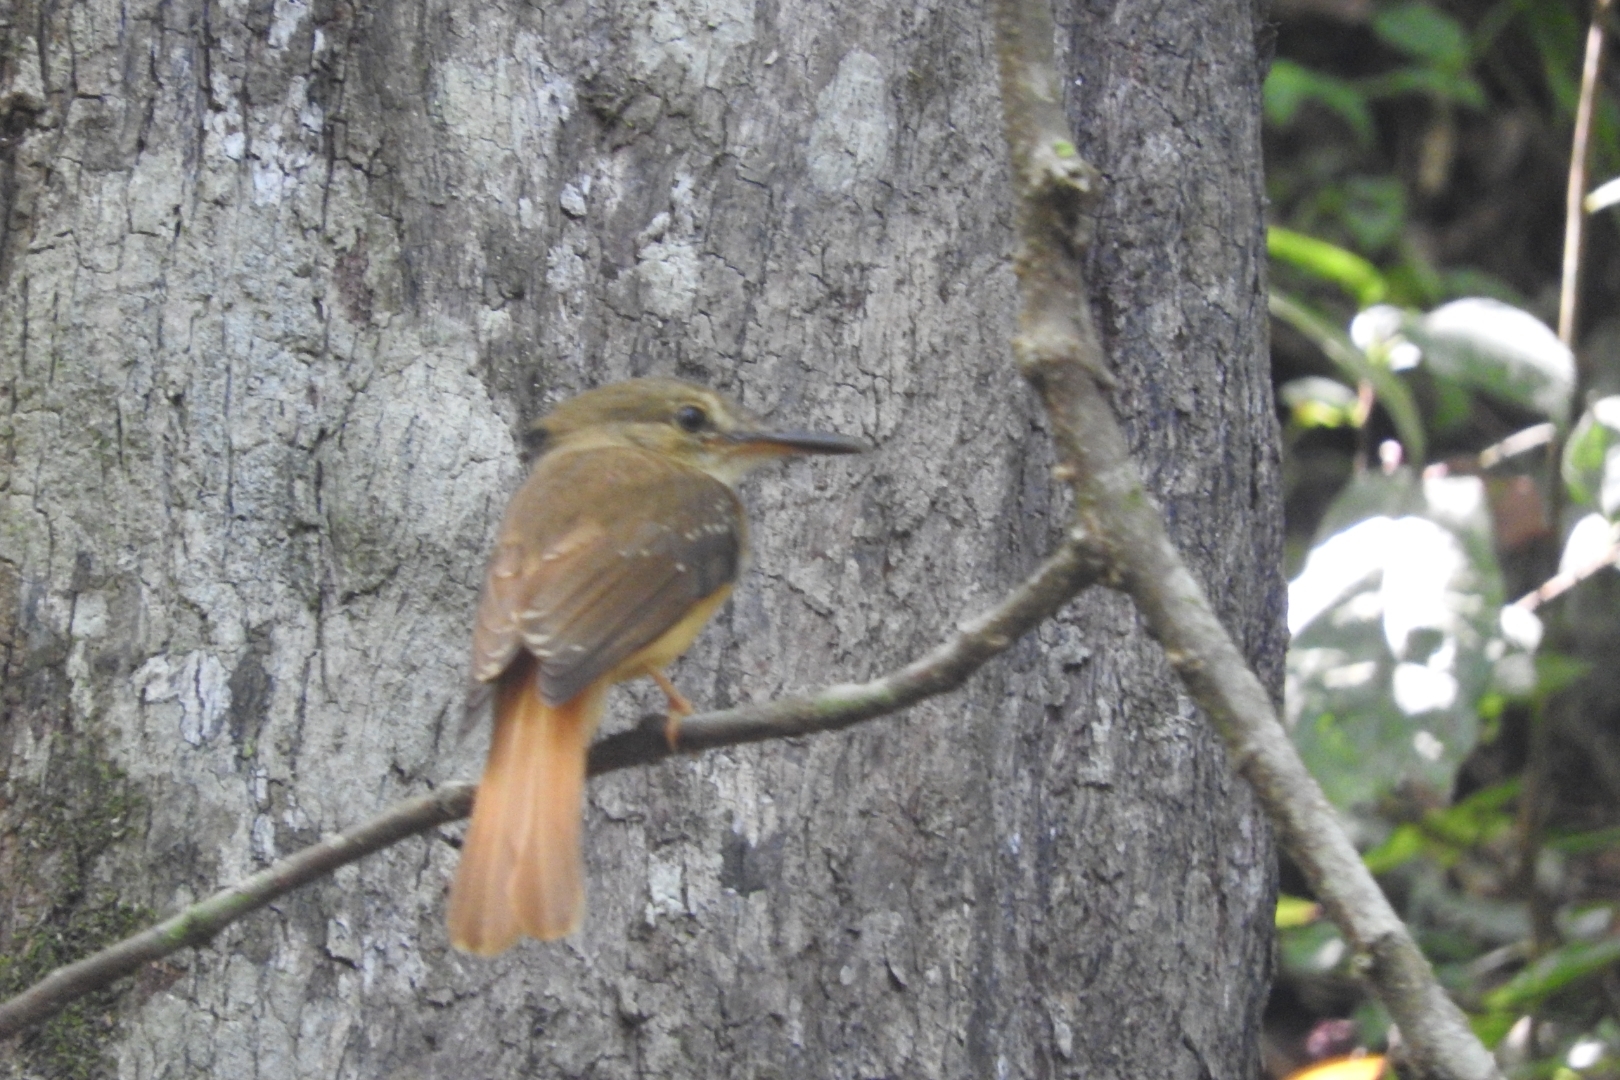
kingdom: Animalia
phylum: Chordata
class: Aves
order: Passeriformes
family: Tyrannidae
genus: Onychorhynchus
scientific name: Onychorhynchus coronatus
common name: Royal flycatcher
